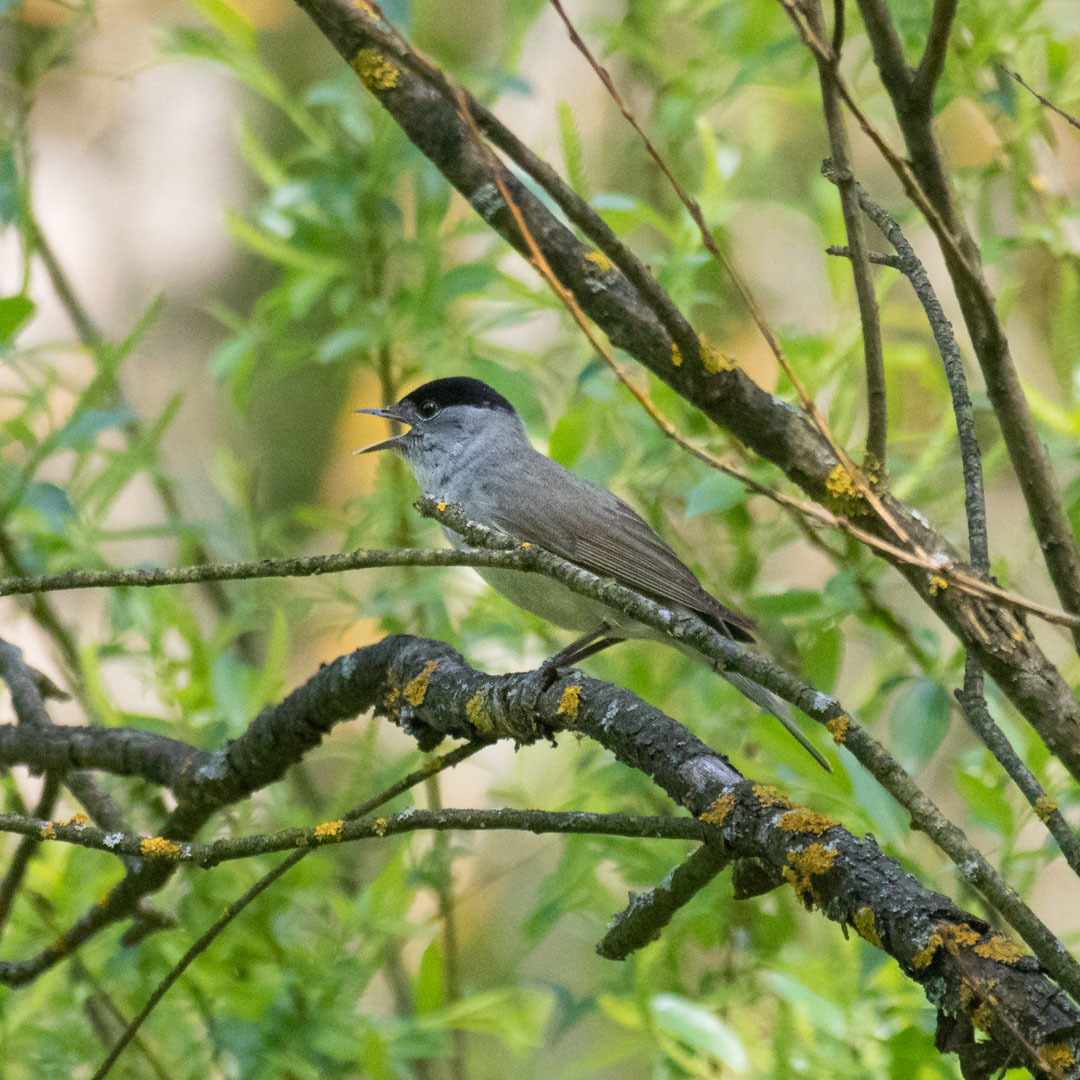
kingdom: Animalia
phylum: Chordata
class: Aves
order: Passeriformes
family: Sylviidae
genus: Sylvia
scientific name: Sylvia atricapilla
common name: Eurasian blackcap
